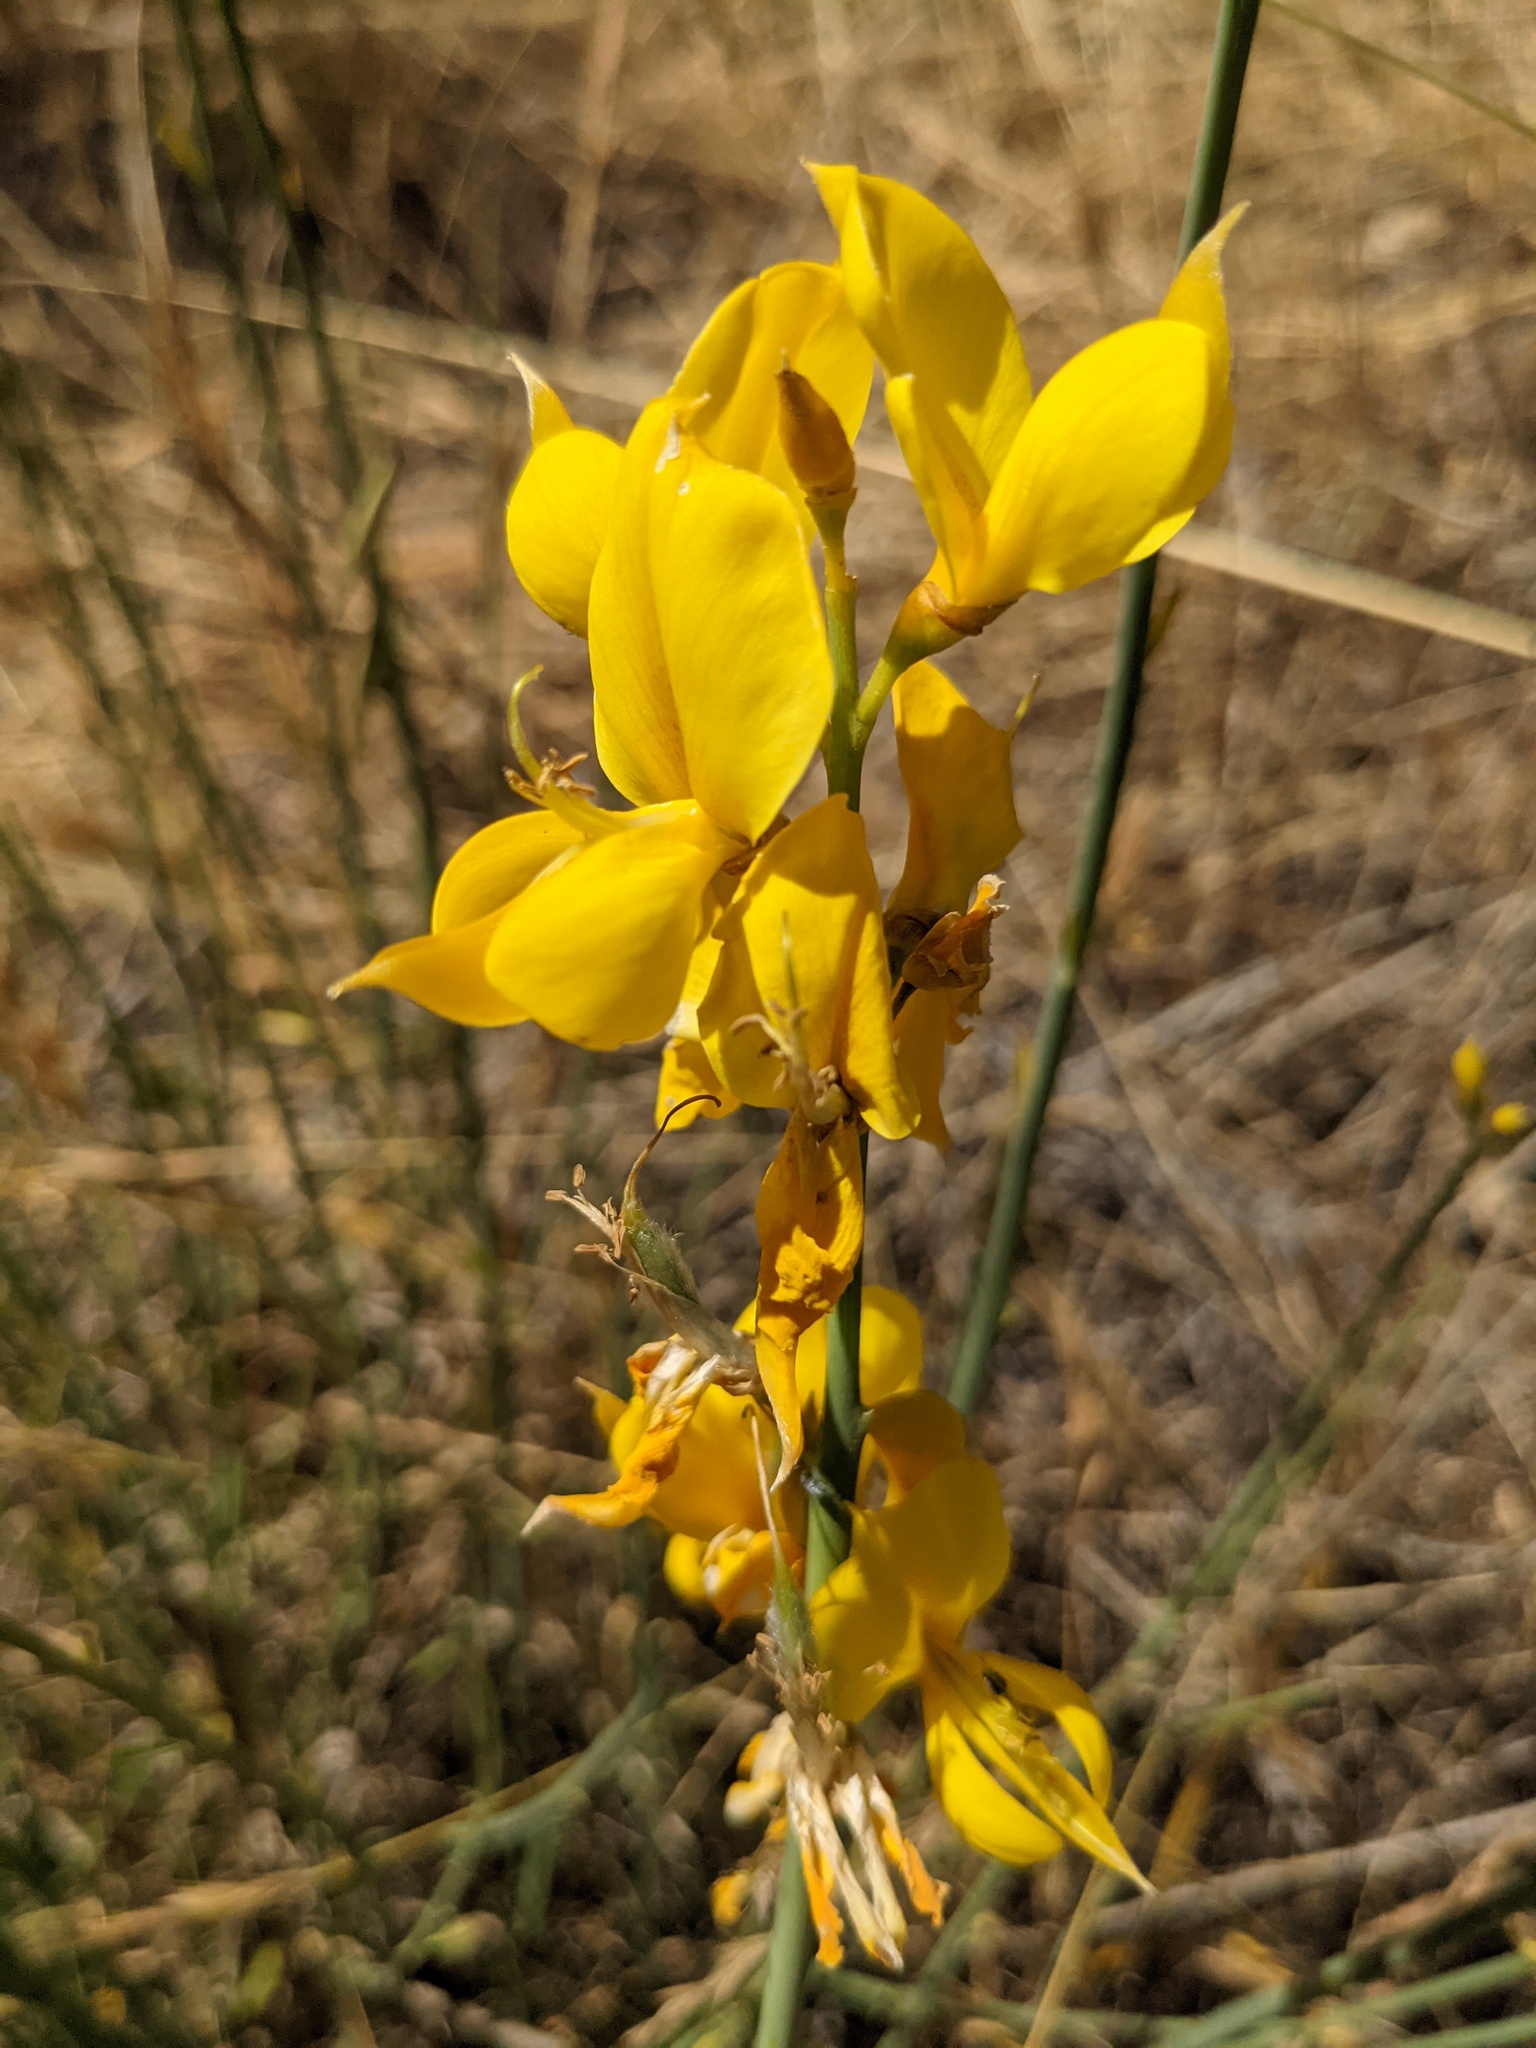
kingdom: Plantae
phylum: Tracheophyta
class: Magnoliopsida
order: Fabales
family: Fabaceae
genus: Spartium
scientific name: Spartium junceum
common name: Spanish broom
